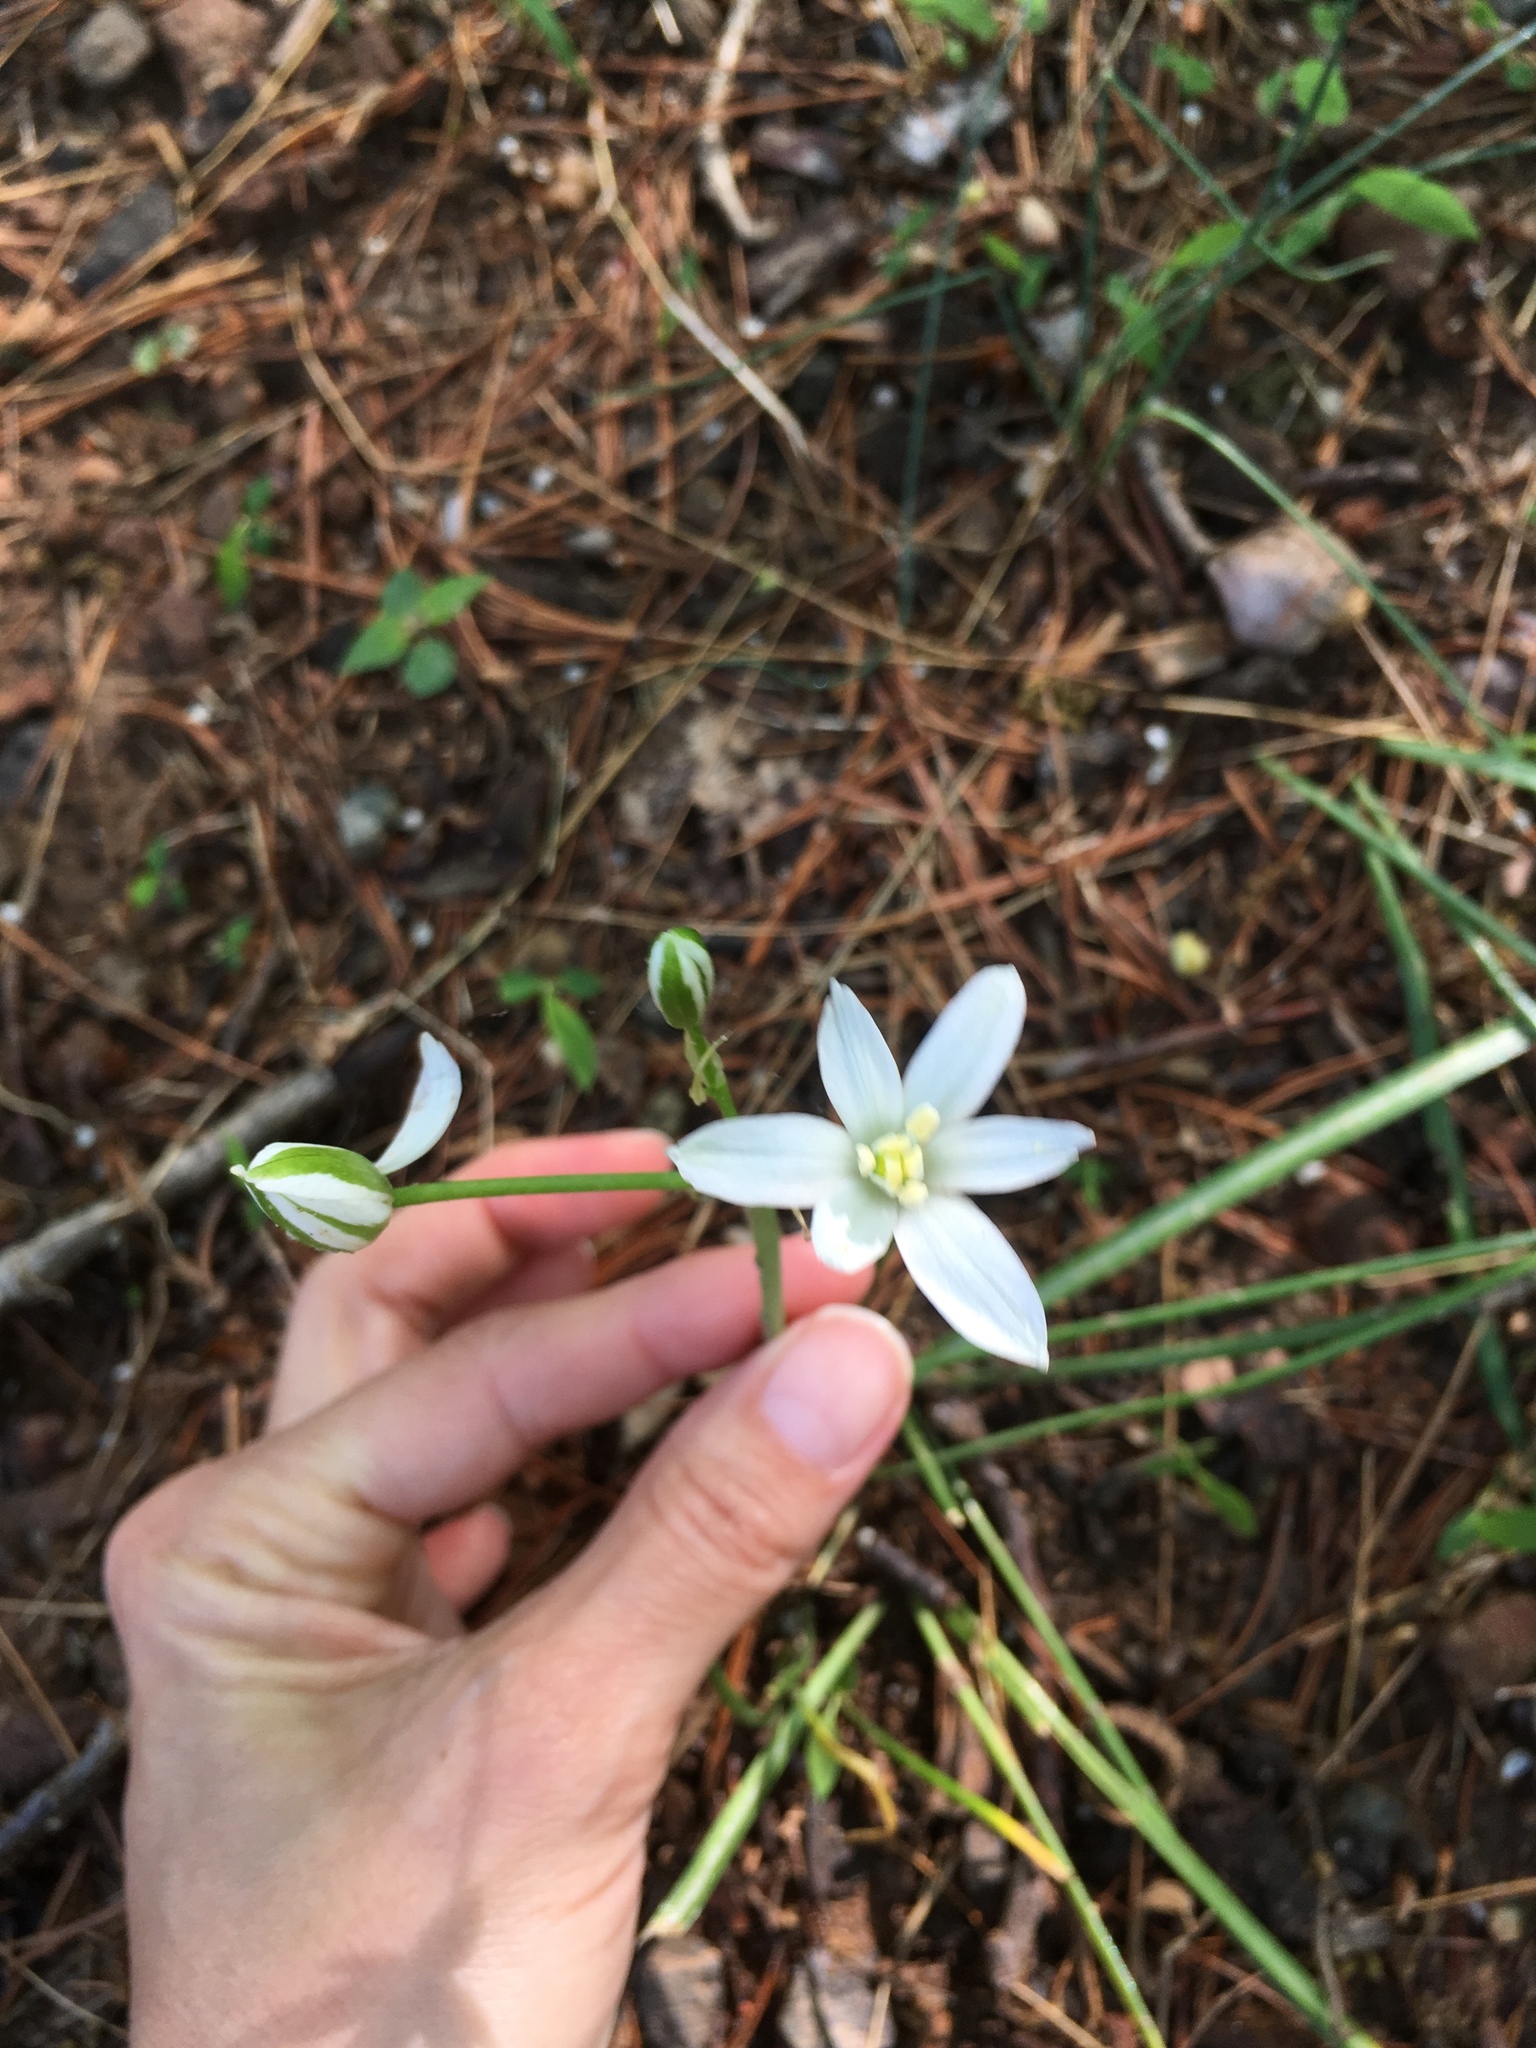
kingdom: Plantae
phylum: Tracheophyta
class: Liliopsida
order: Asparagales
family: Asparagaceae
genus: Ornithogalum
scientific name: Ornithogalum umbellatum
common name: Garden star-of-bethlehem
